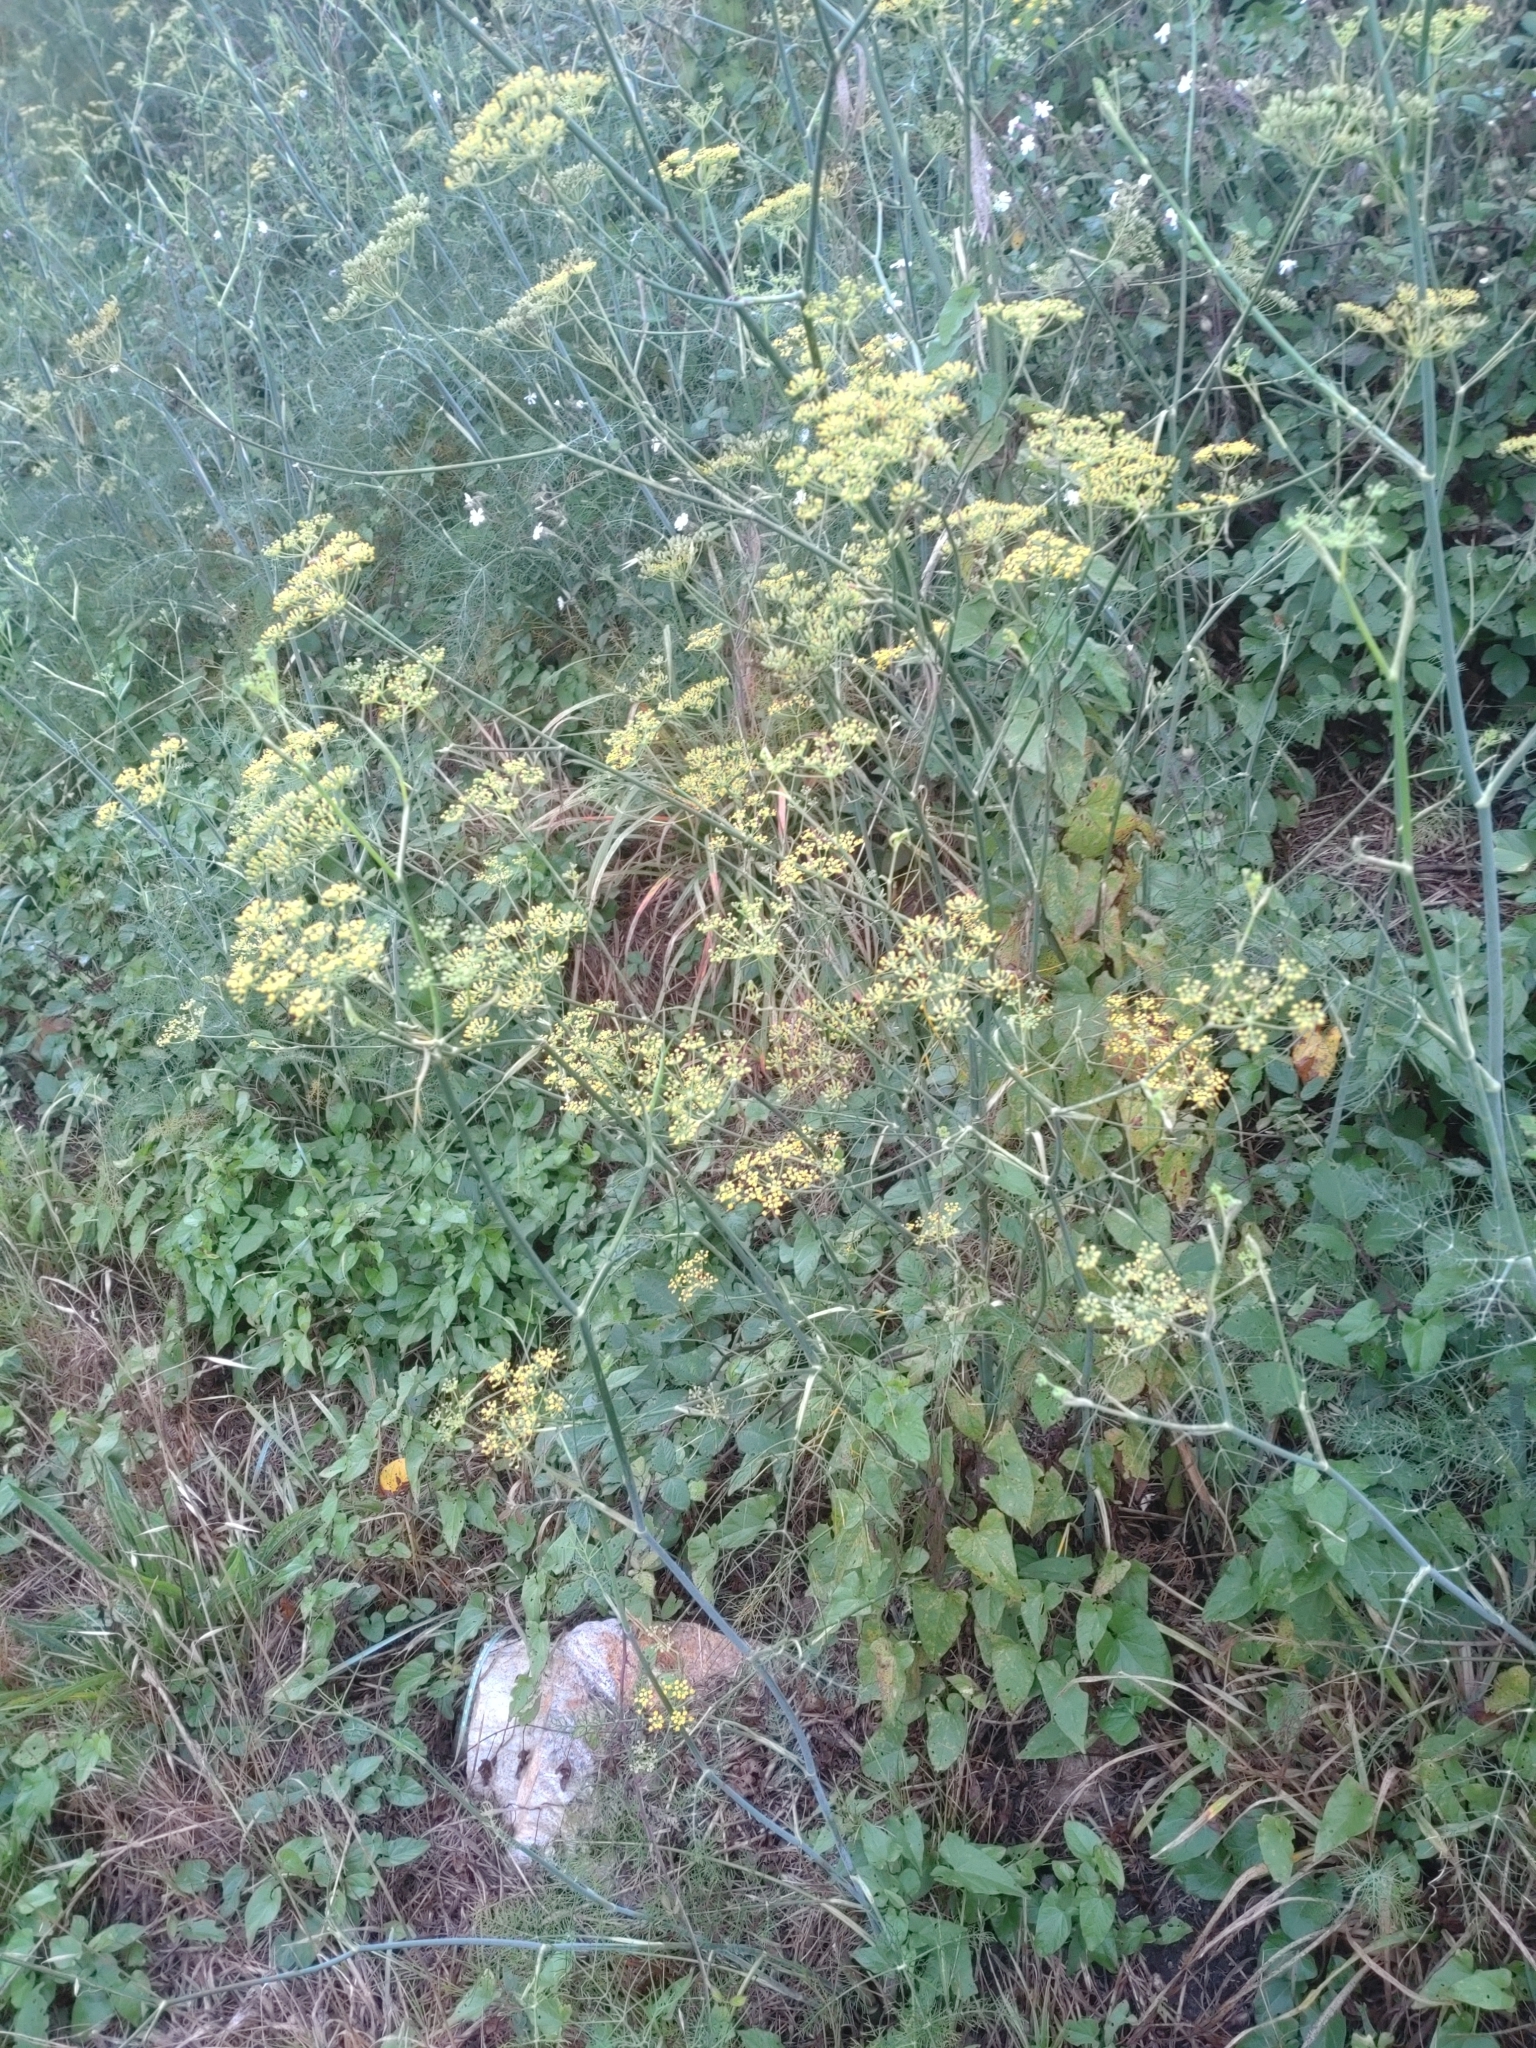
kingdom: Plantae
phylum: Tracheophyta
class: Magnoliopsida
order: Apiales
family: Apiaceae
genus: Foeniculum
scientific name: Foeniculum vulgare
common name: Fennel
